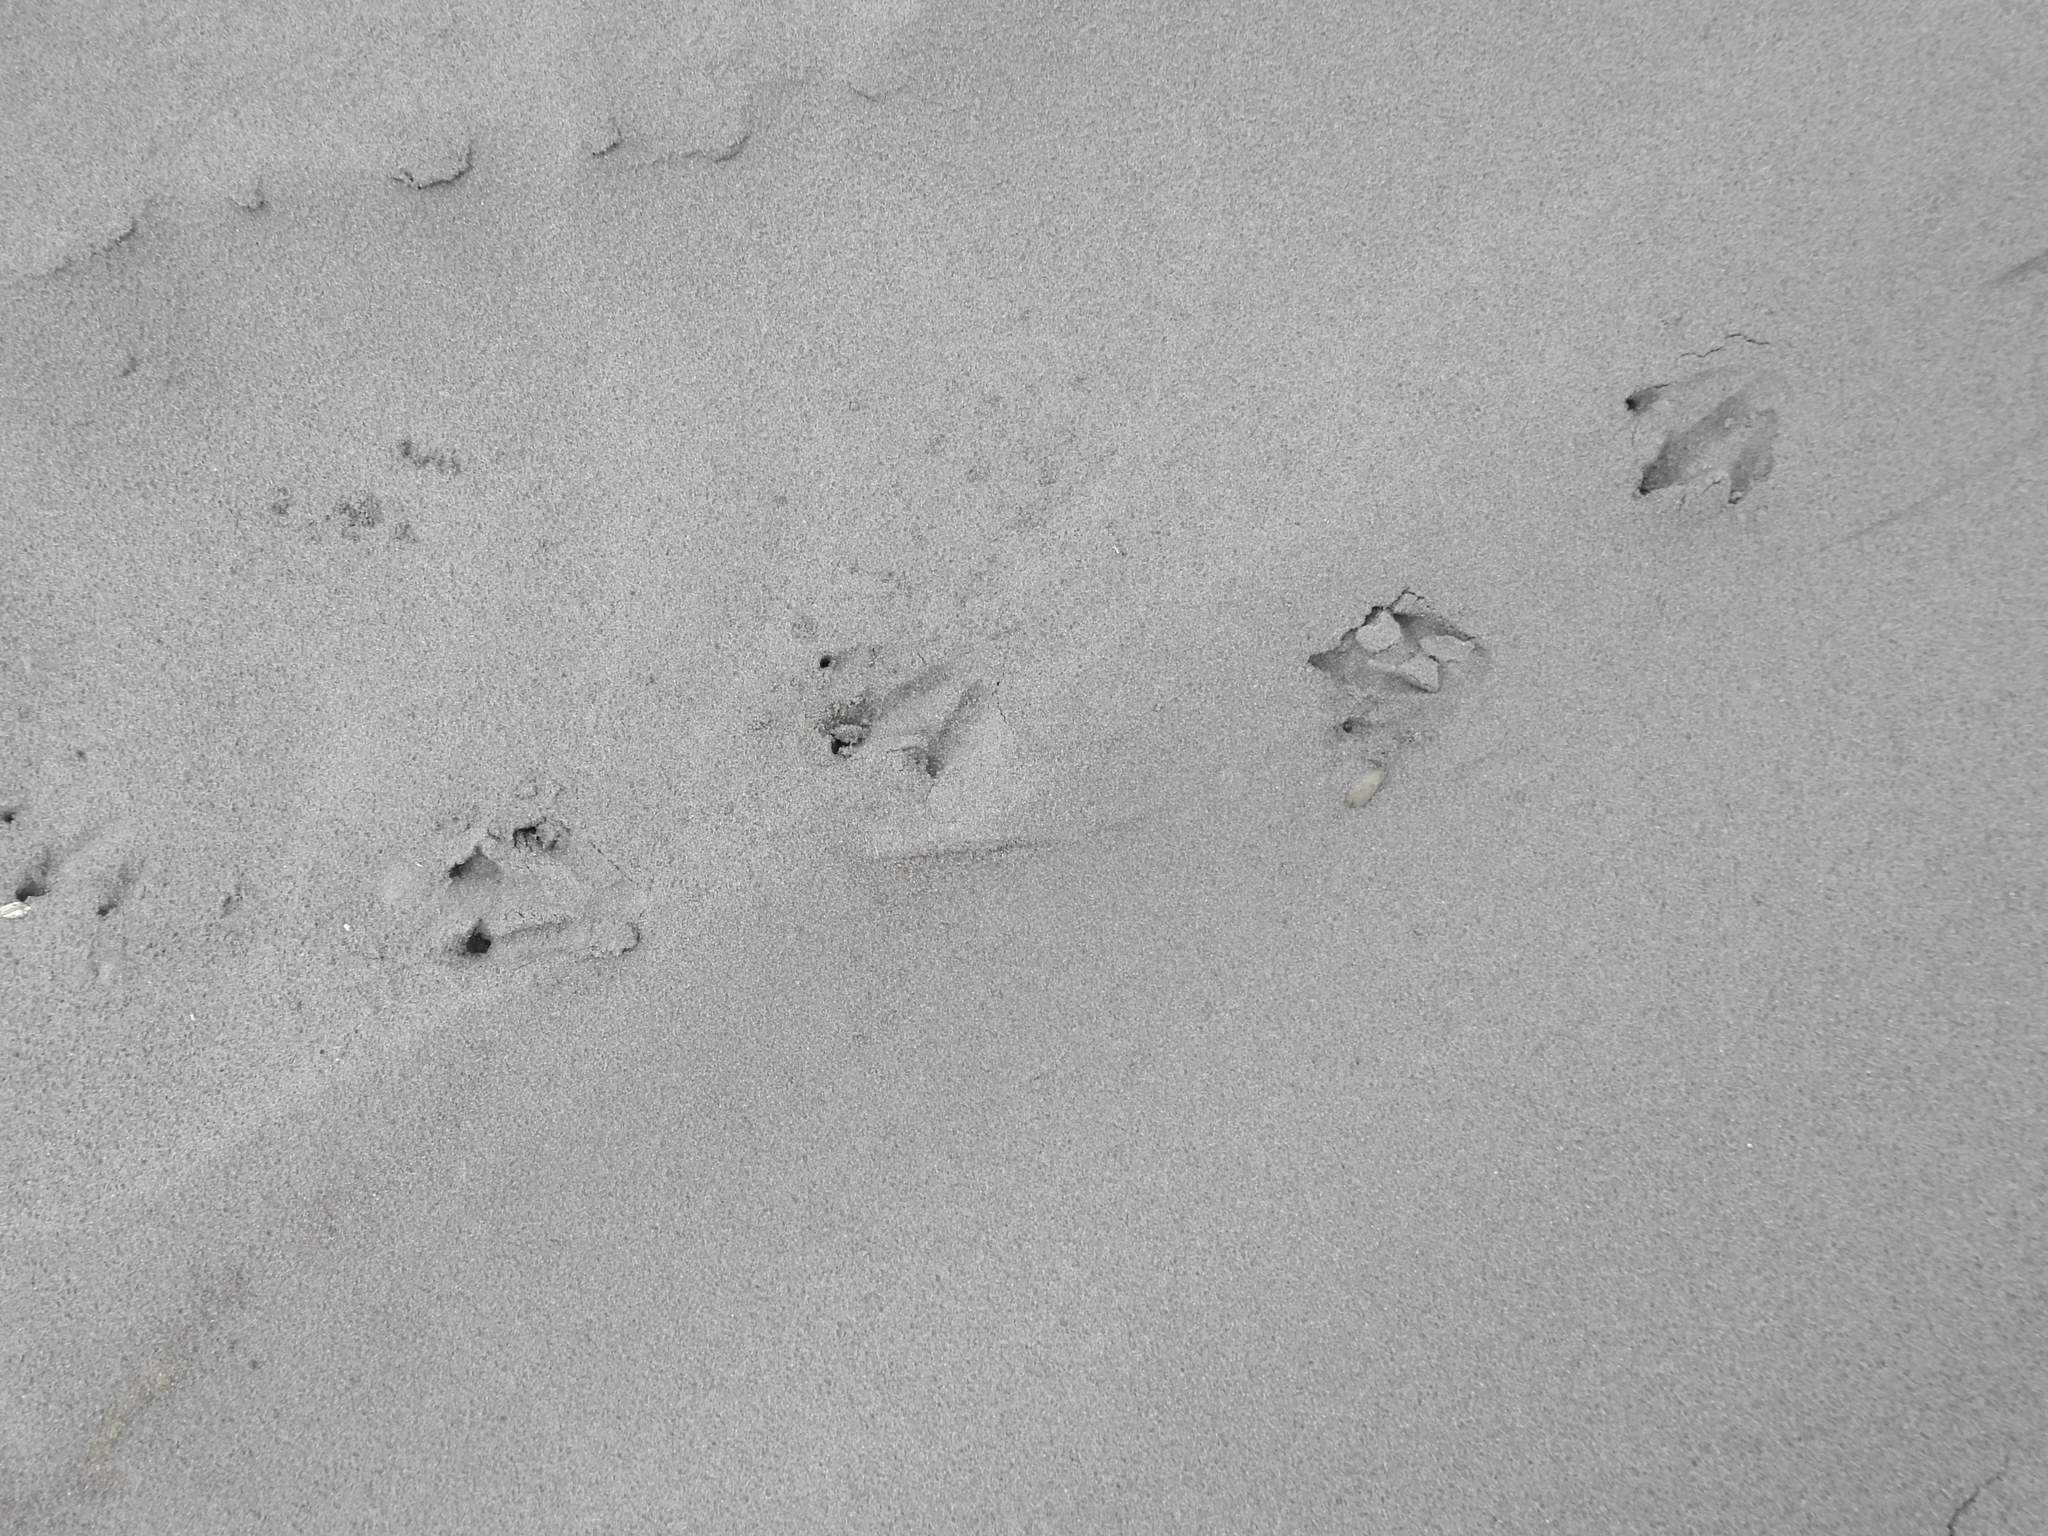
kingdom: Animalia
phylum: Chordata
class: Aves
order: Sphenisciformes
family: Spheniscidae
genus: Eudyptula
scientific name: Eudyptula minor
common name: Little penguin
